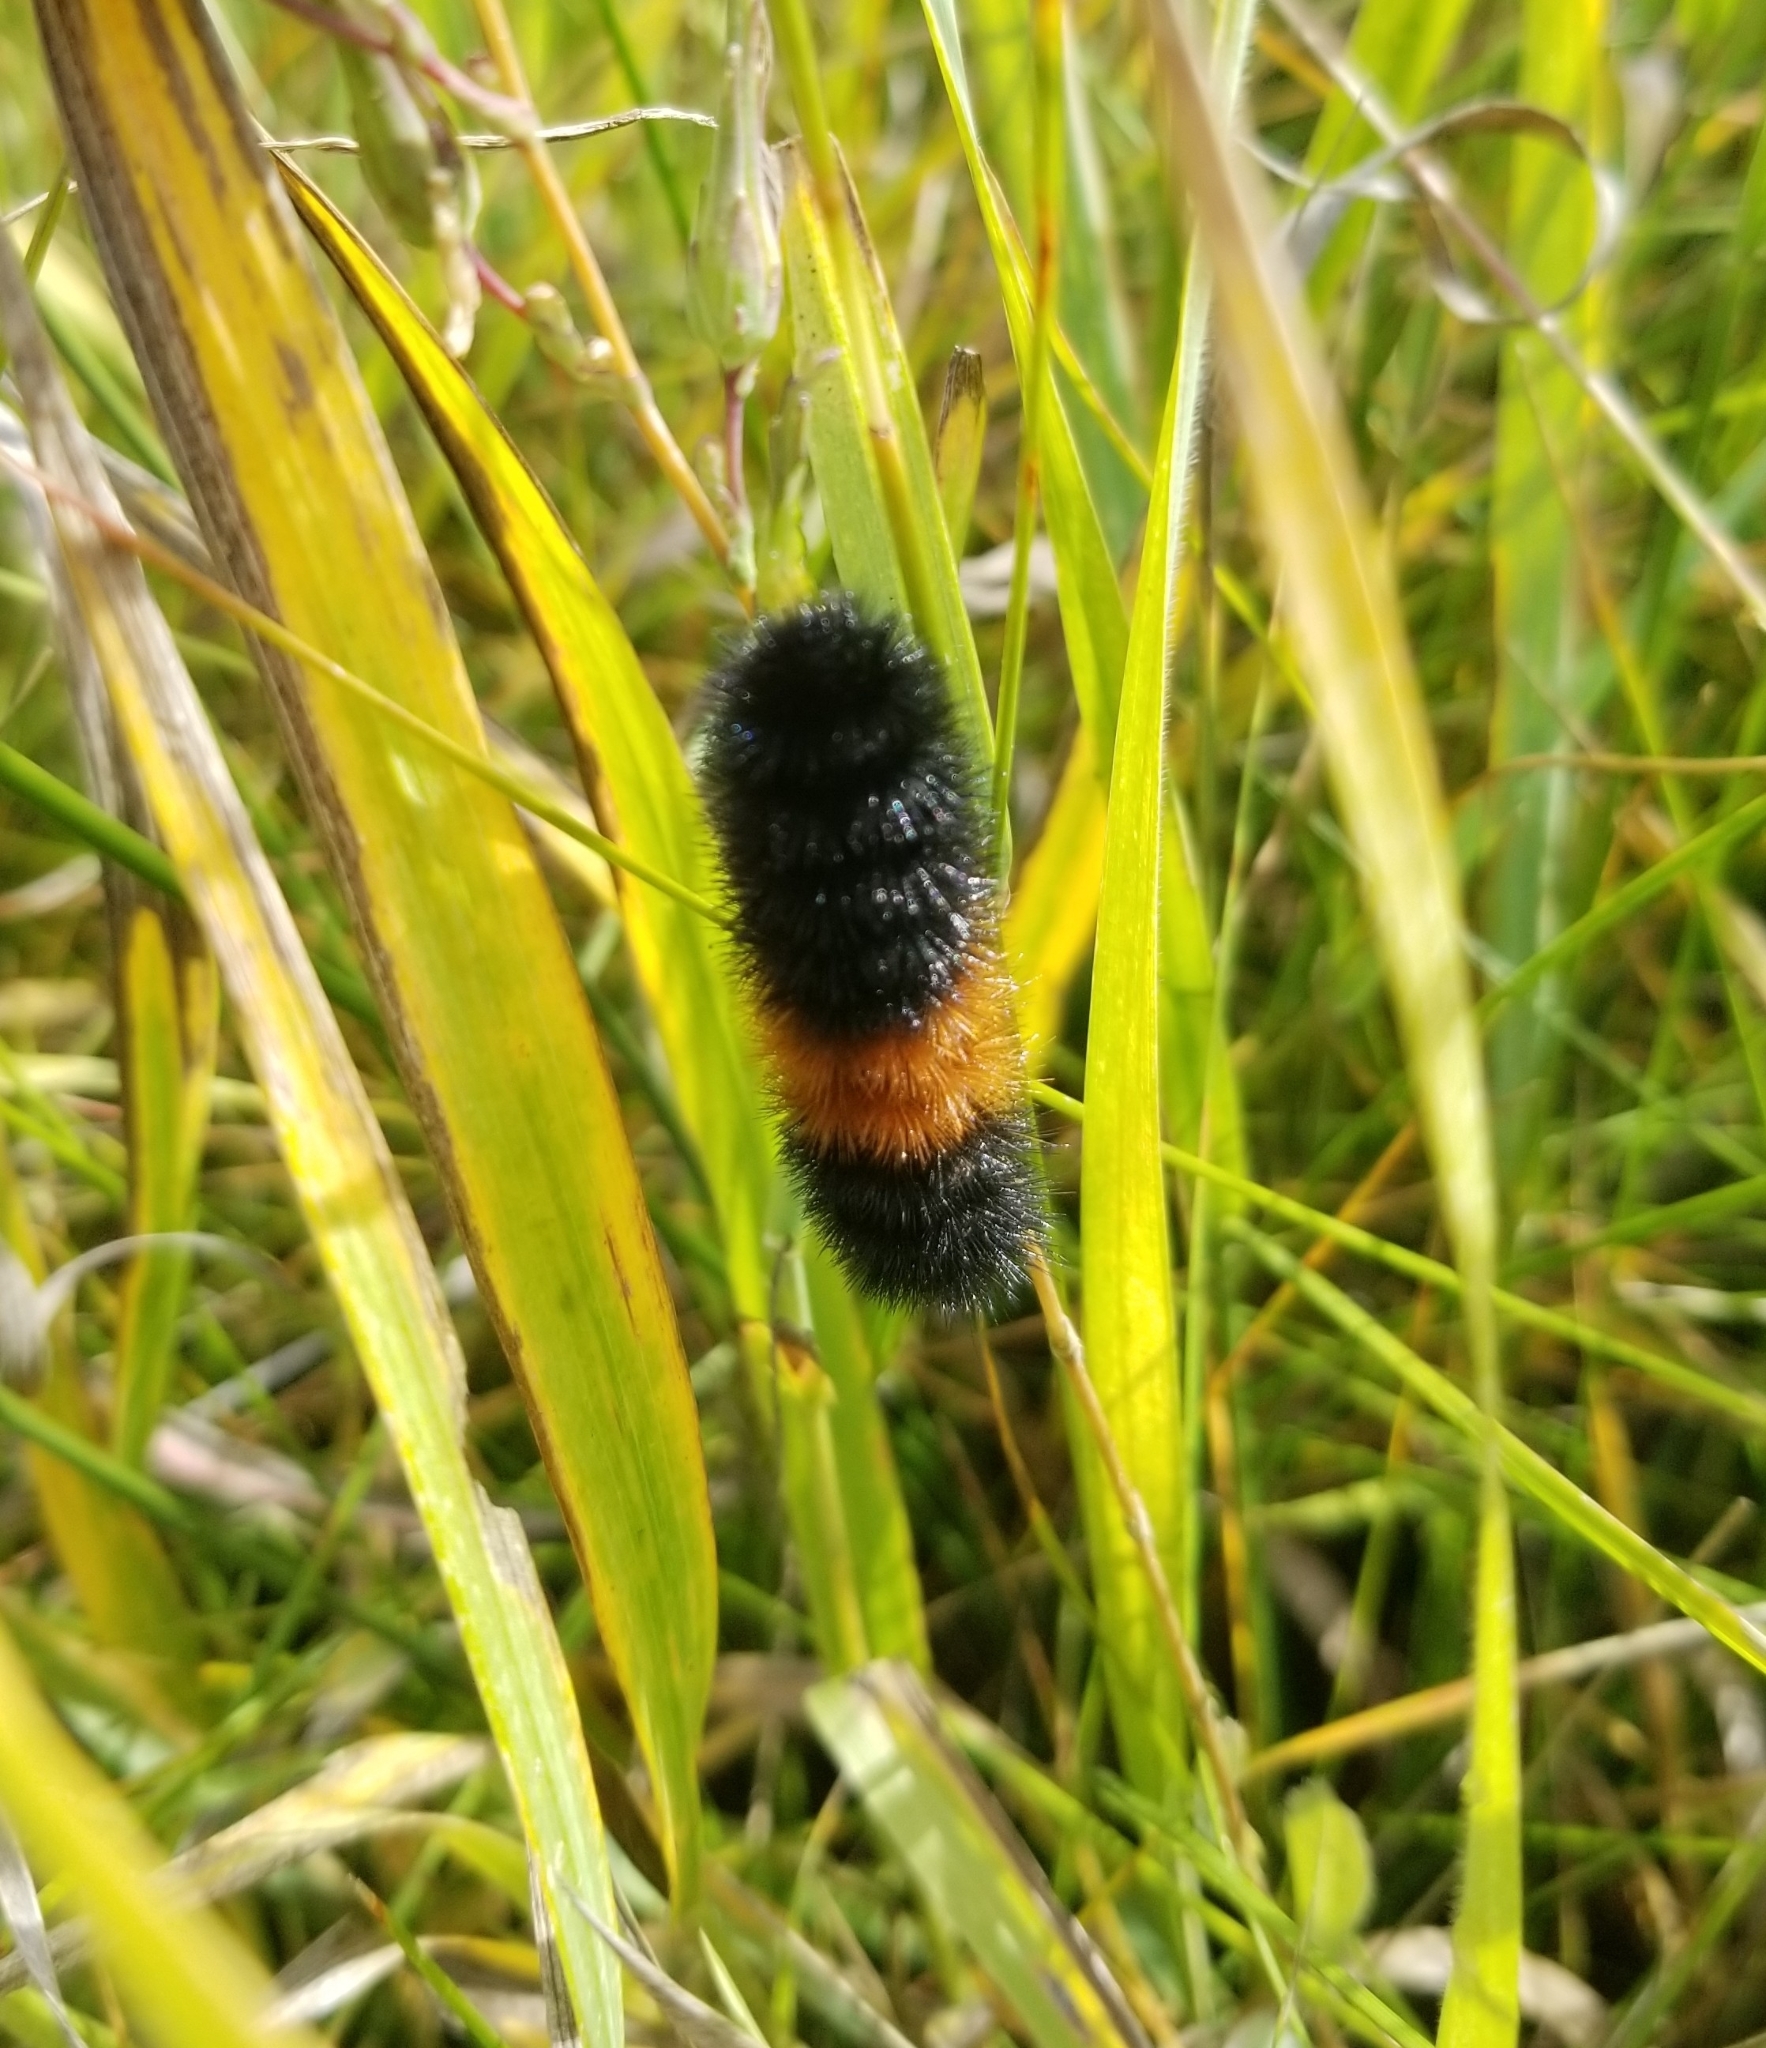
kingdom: Animalia
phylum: Arthropoda
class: Insecta
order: Lepidoptera
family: Erebidae
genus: Pyrrharctia
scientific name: Pyrrharctia isabella
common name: Isabella tiger moth
